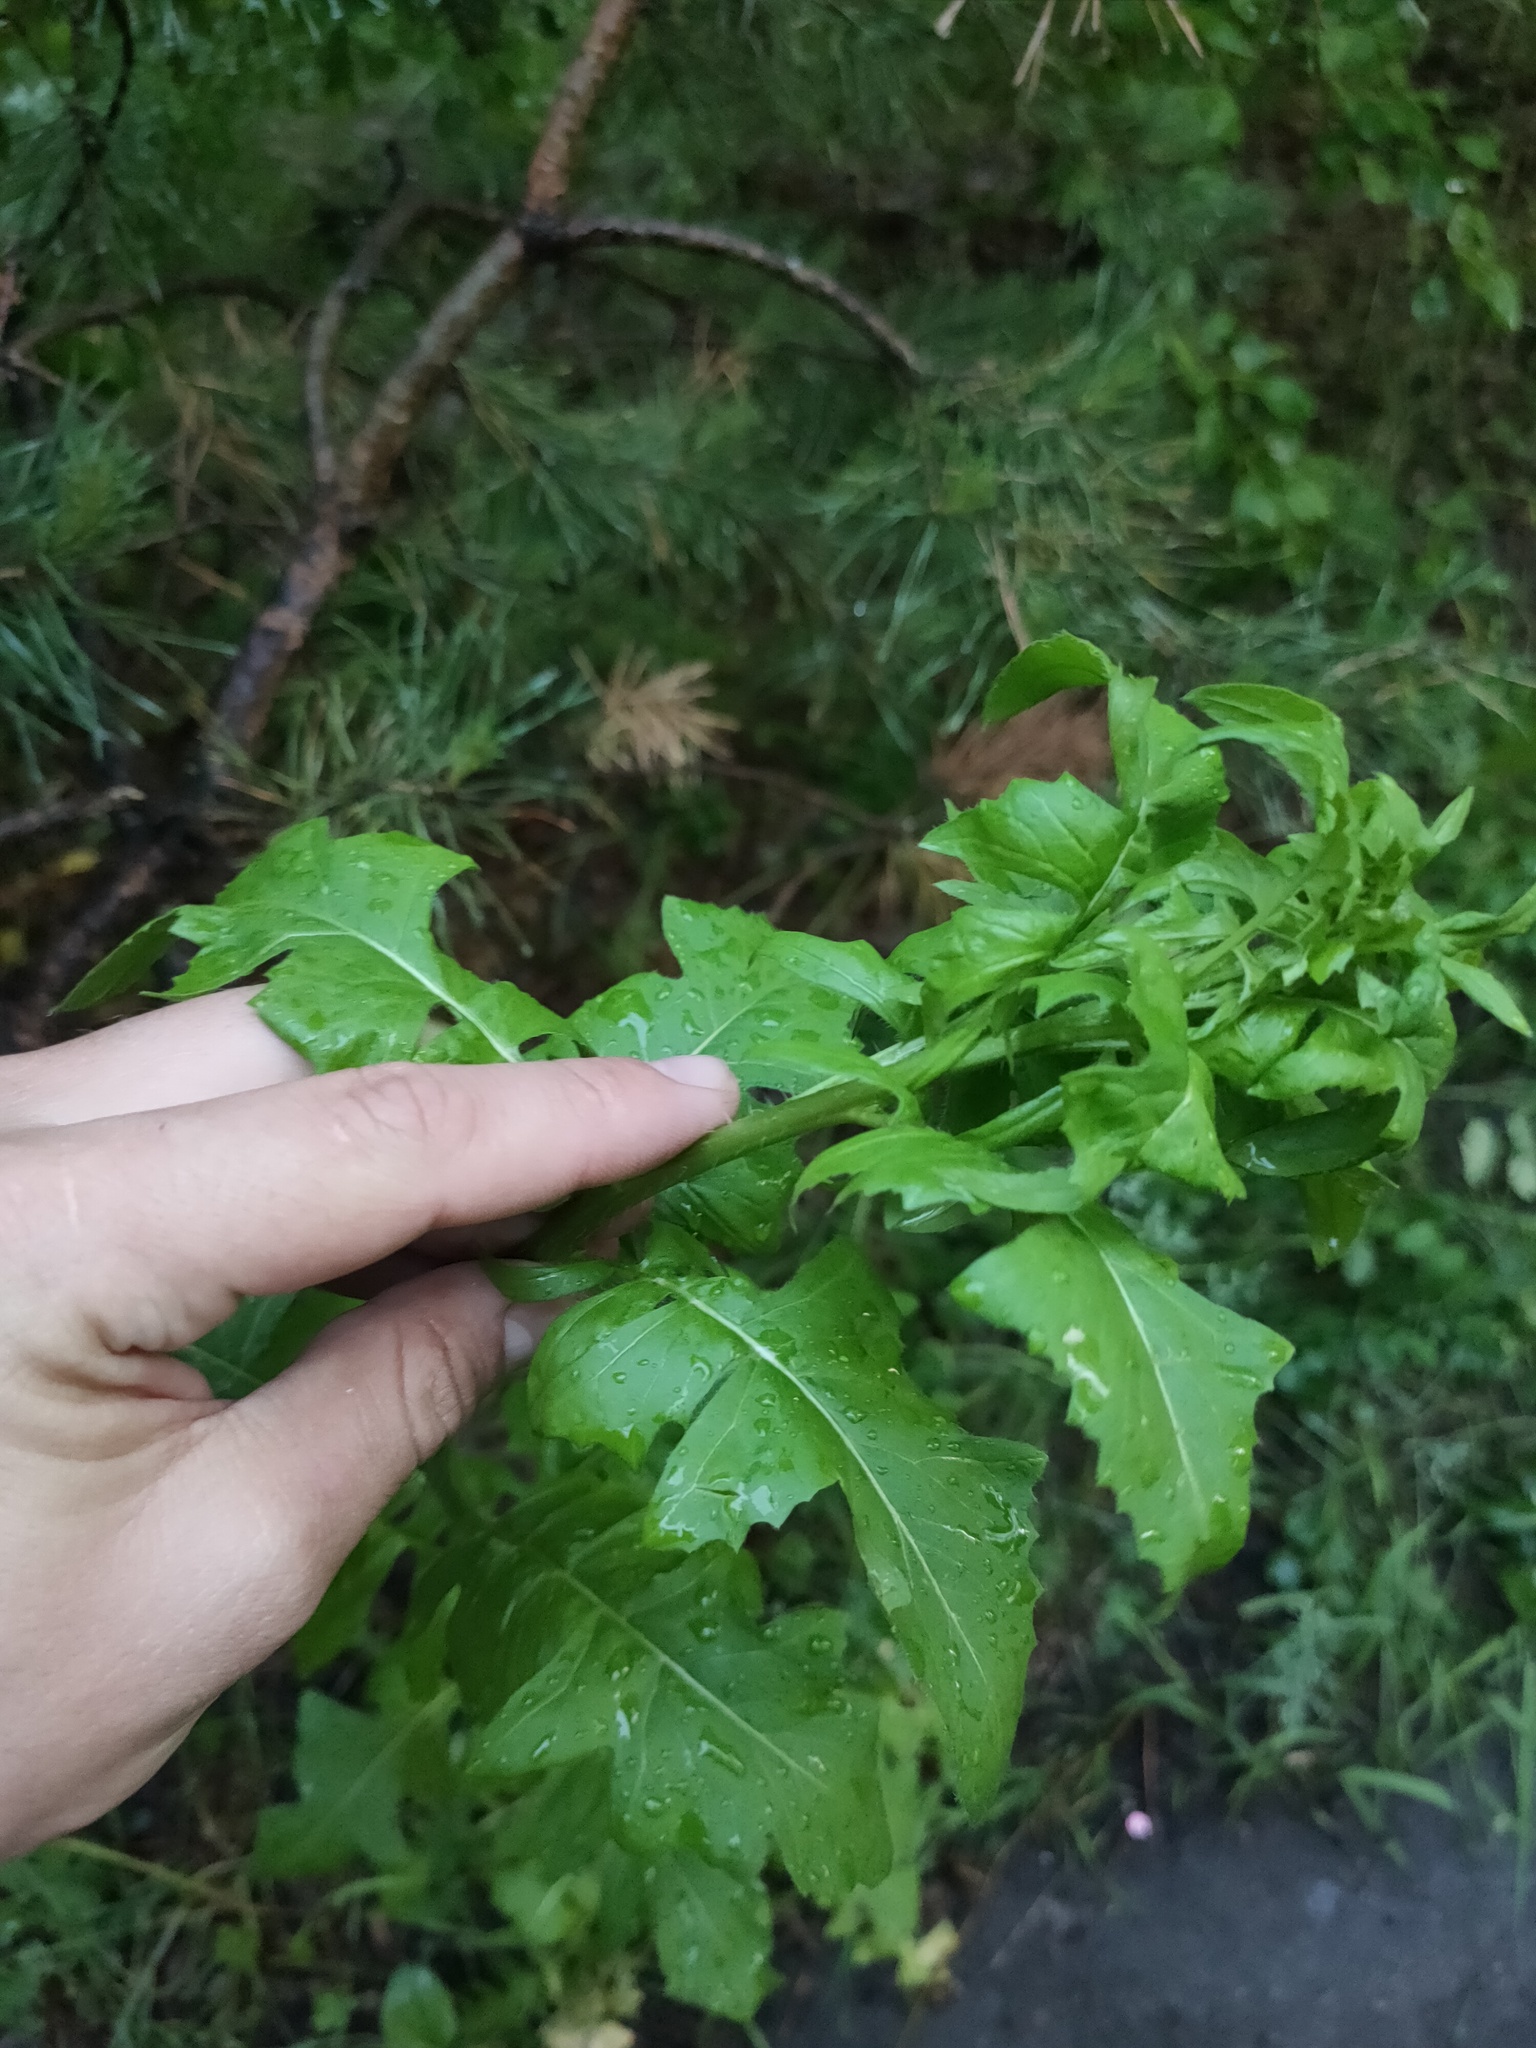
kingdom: Plantae
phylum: Tracheophyta
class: Magnoliopsida
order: Brassicales
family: Brassicaceae
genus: Sisymbrium
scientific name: Sisymbrium loeselii
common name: False london-rocket
